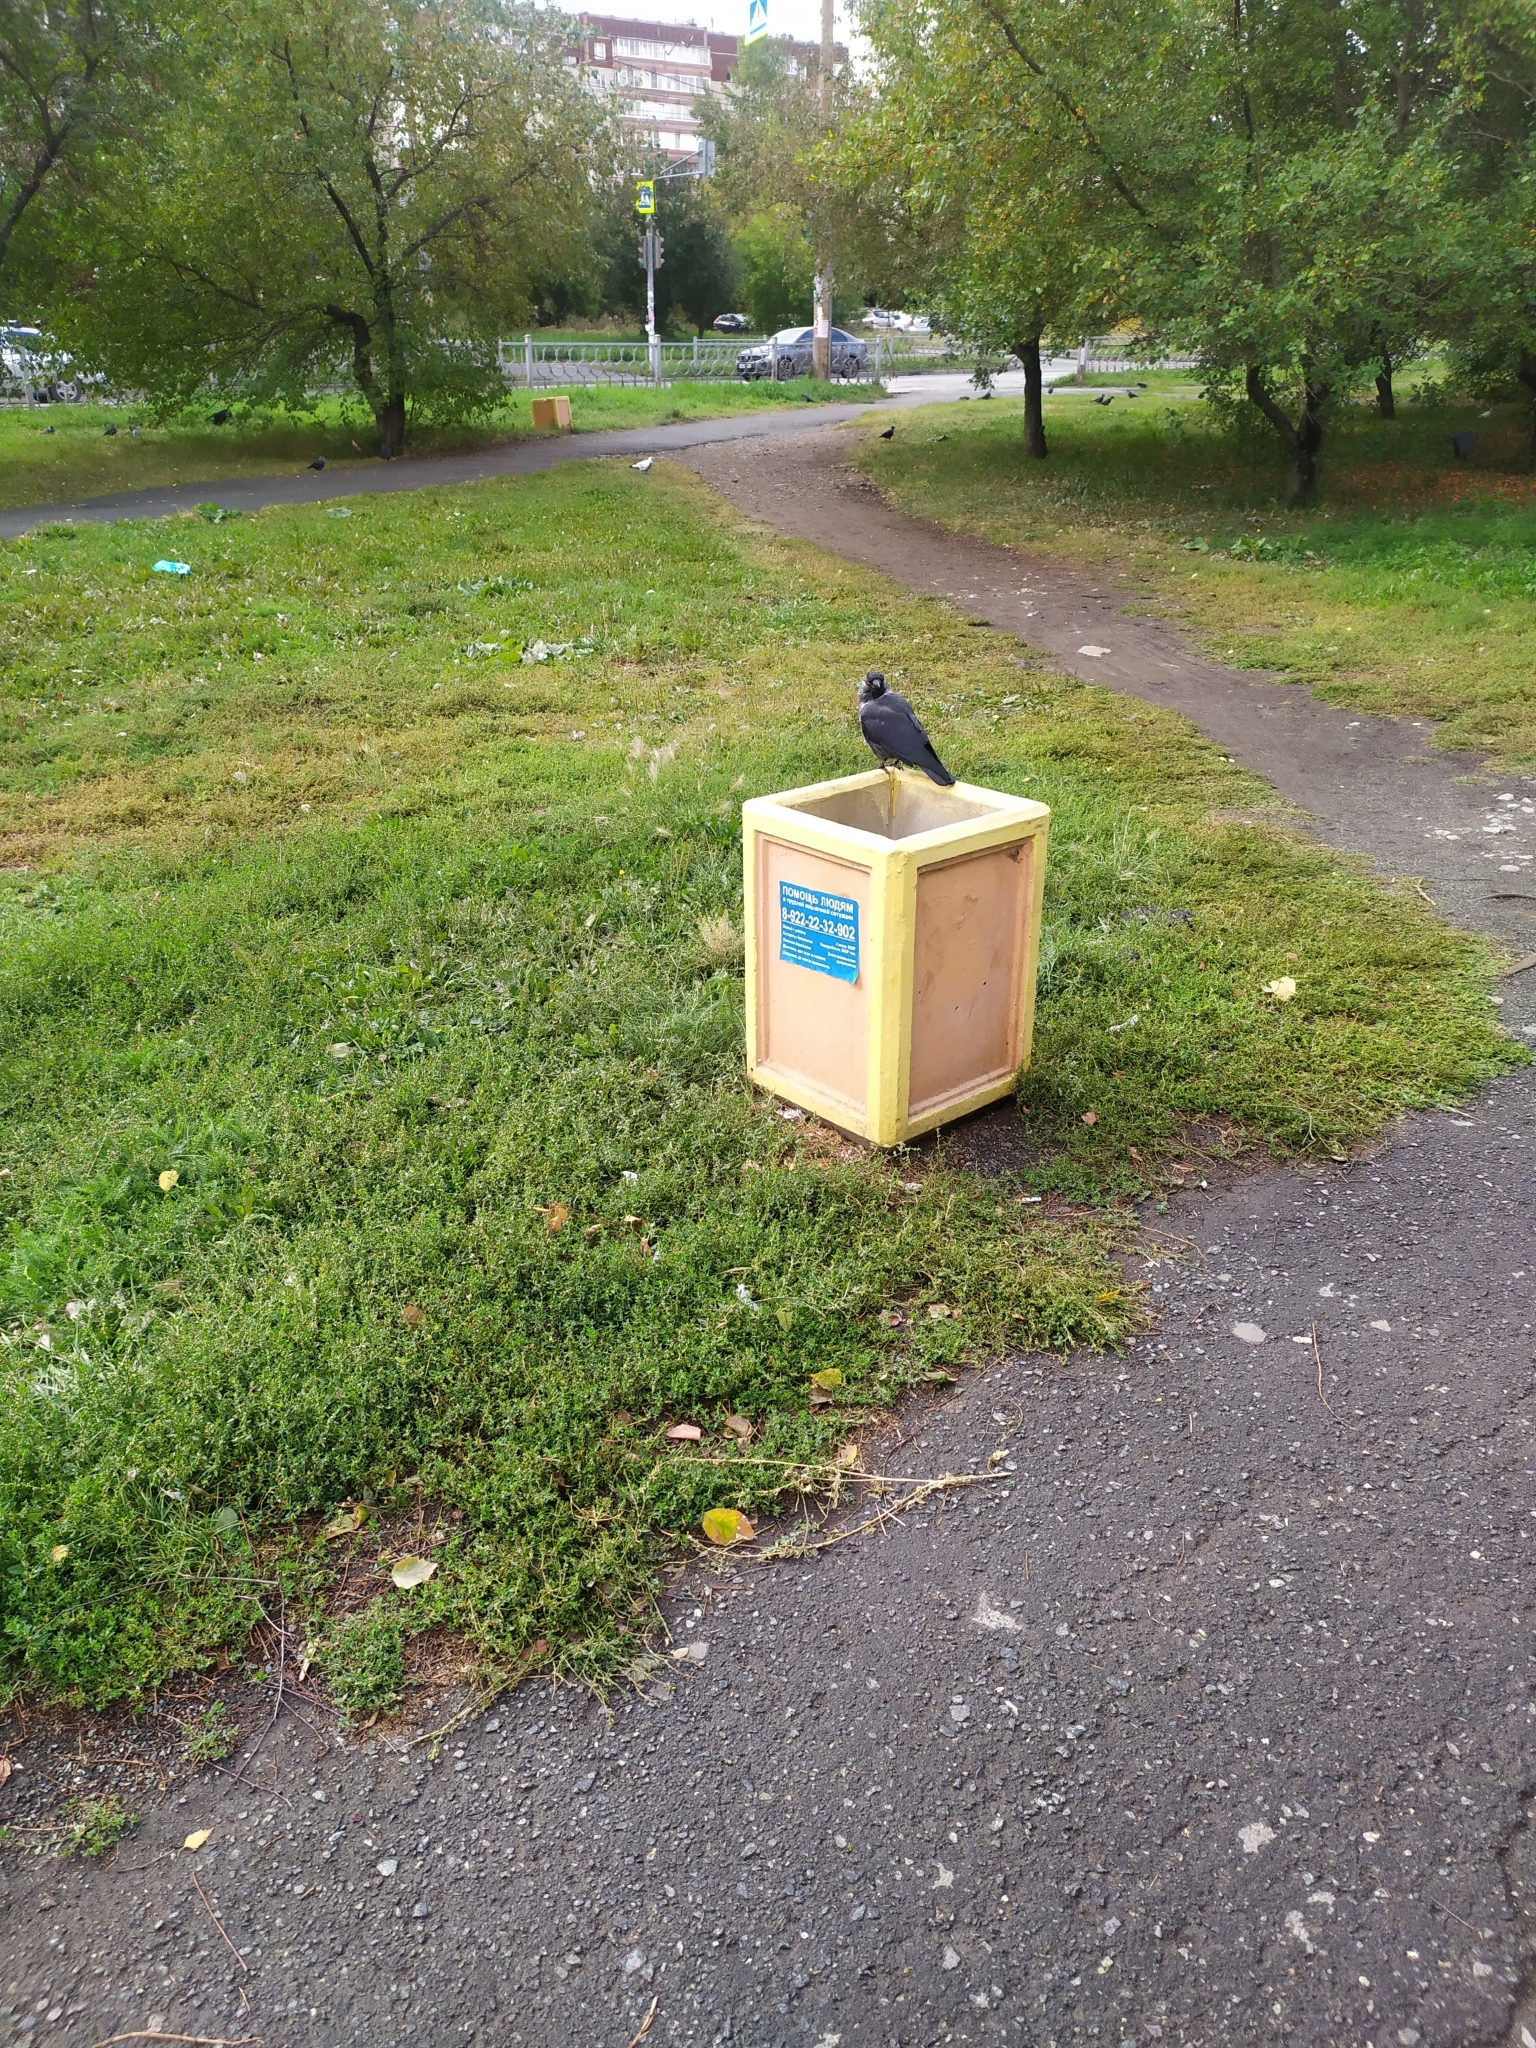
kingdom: Animalia
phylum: Chordata
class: Aves
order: Passeriformes
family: Corvidae
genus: Coloeus
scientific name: Coloeus monedula
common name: Western jackdaw
